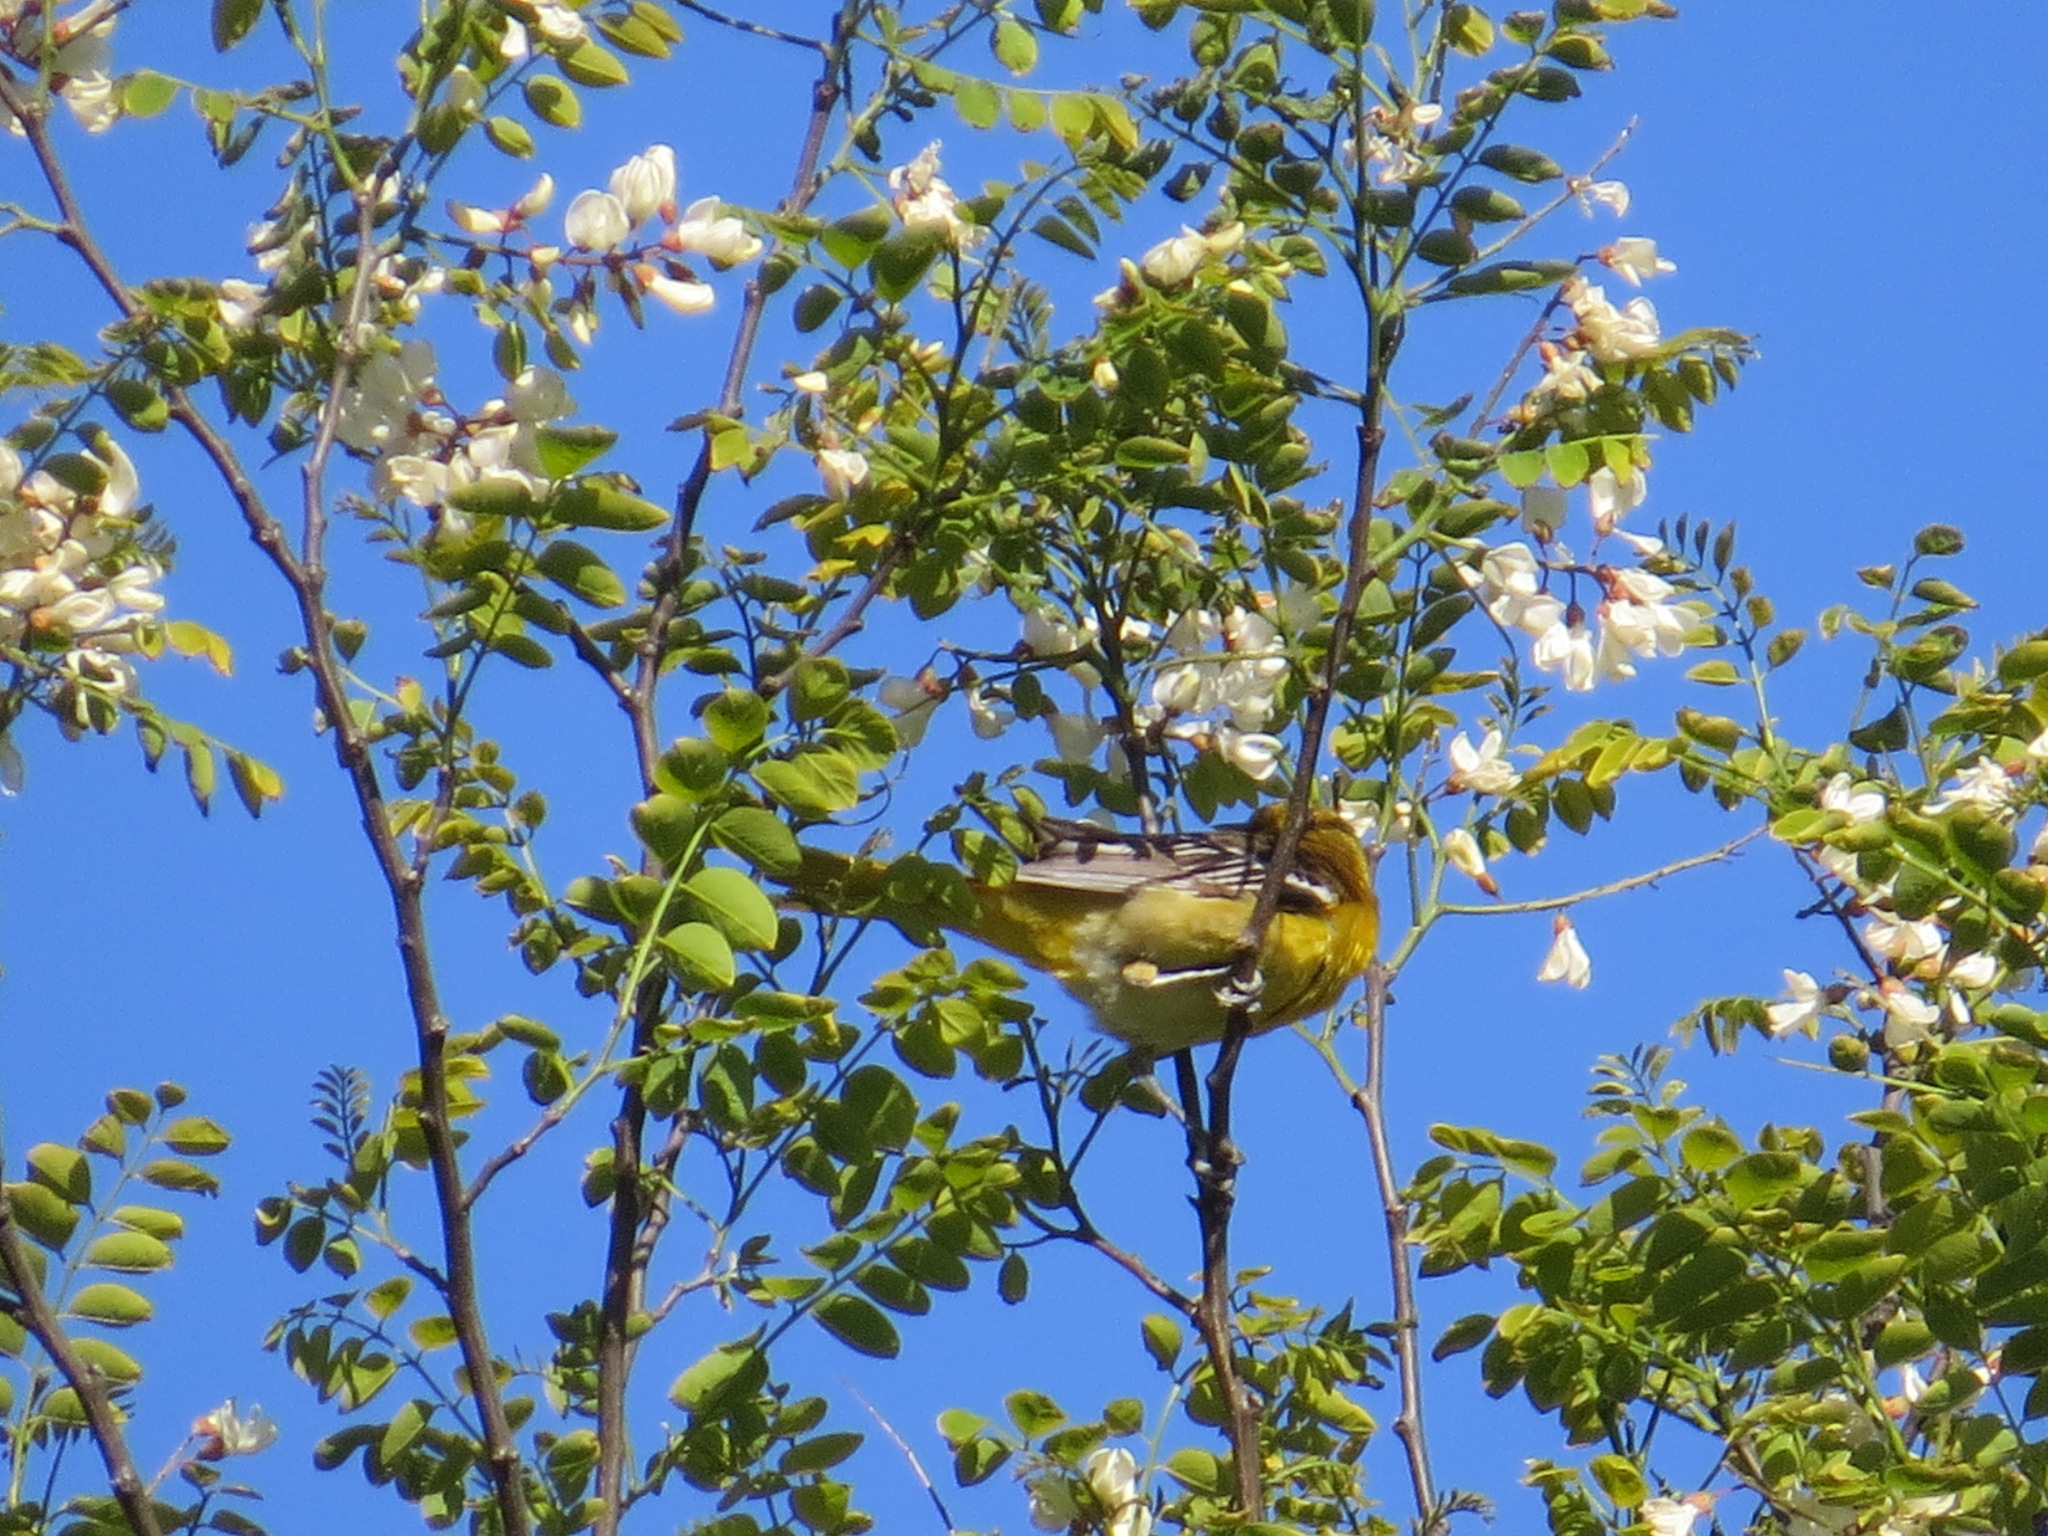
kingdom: Animalia
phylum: Chordata
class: Aves
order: Passeriformes
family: Icteridae
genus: Icterus
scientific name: Icterus bullockii
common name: Bullock's oriole
